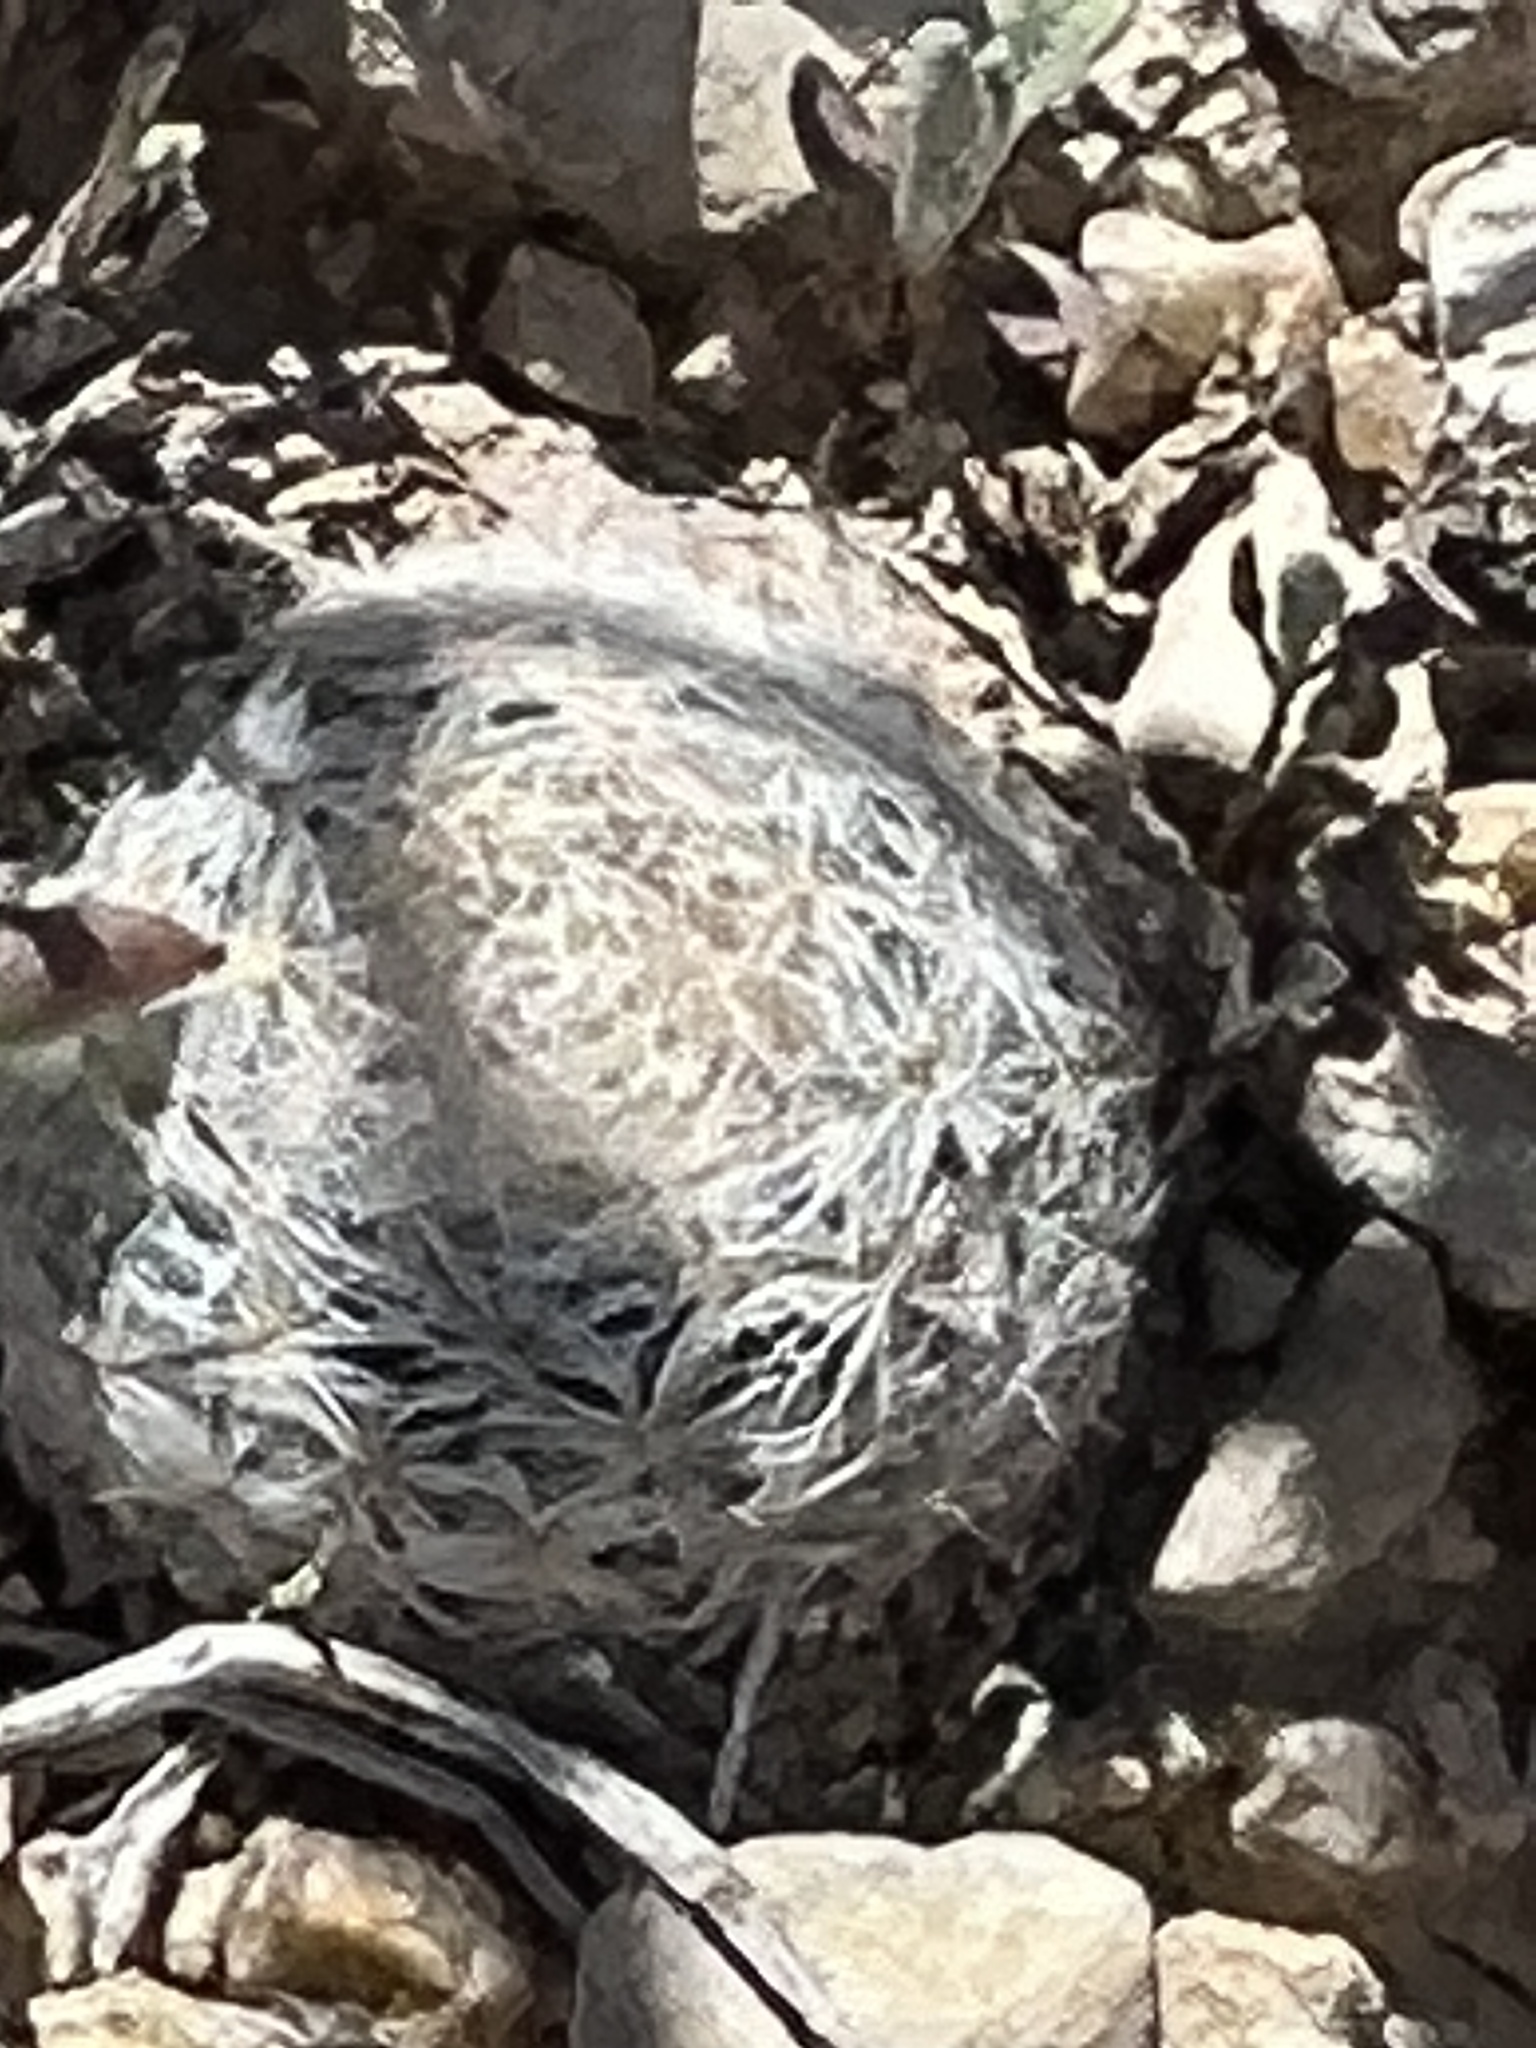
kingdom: Plantae
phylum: Tracheophyta
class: Magnoliopsida
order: Caryophyllales
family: Cactaceae
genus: Mammillaria
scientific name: Mammillaria lasiacantha
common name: Lace-spine nipple cactus
